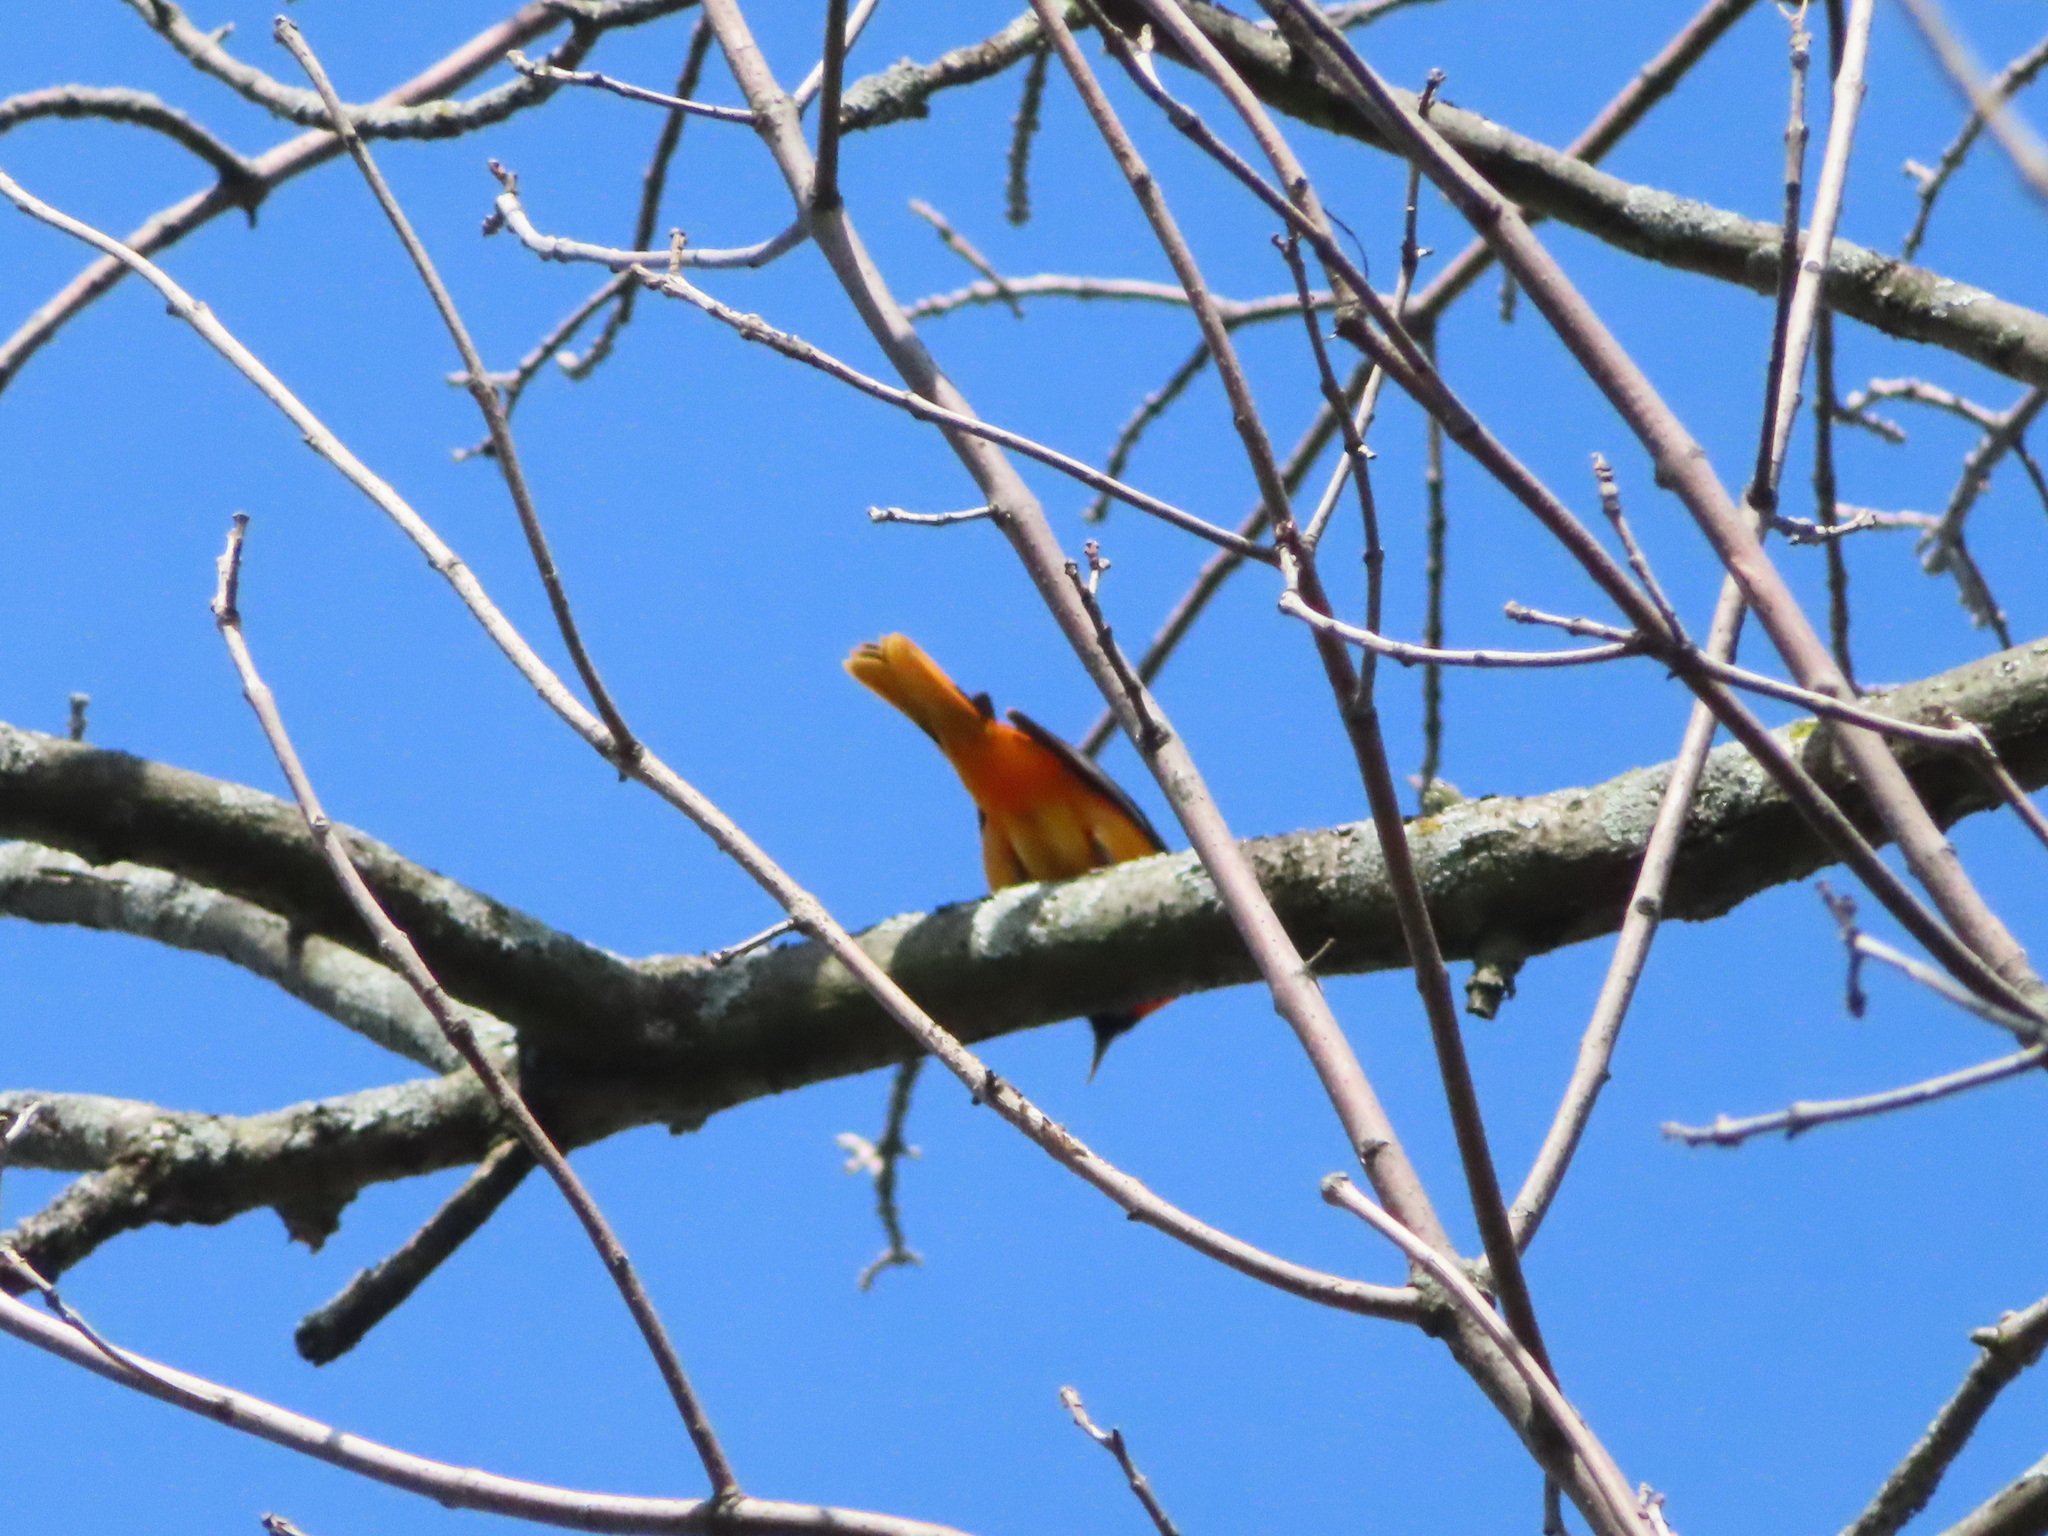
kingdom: Animalia
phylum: Chordata
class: Aves
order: Passeriformes
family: Icteridae
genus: Icterus
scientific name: Icterus galbula
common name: Baltimore oriole
